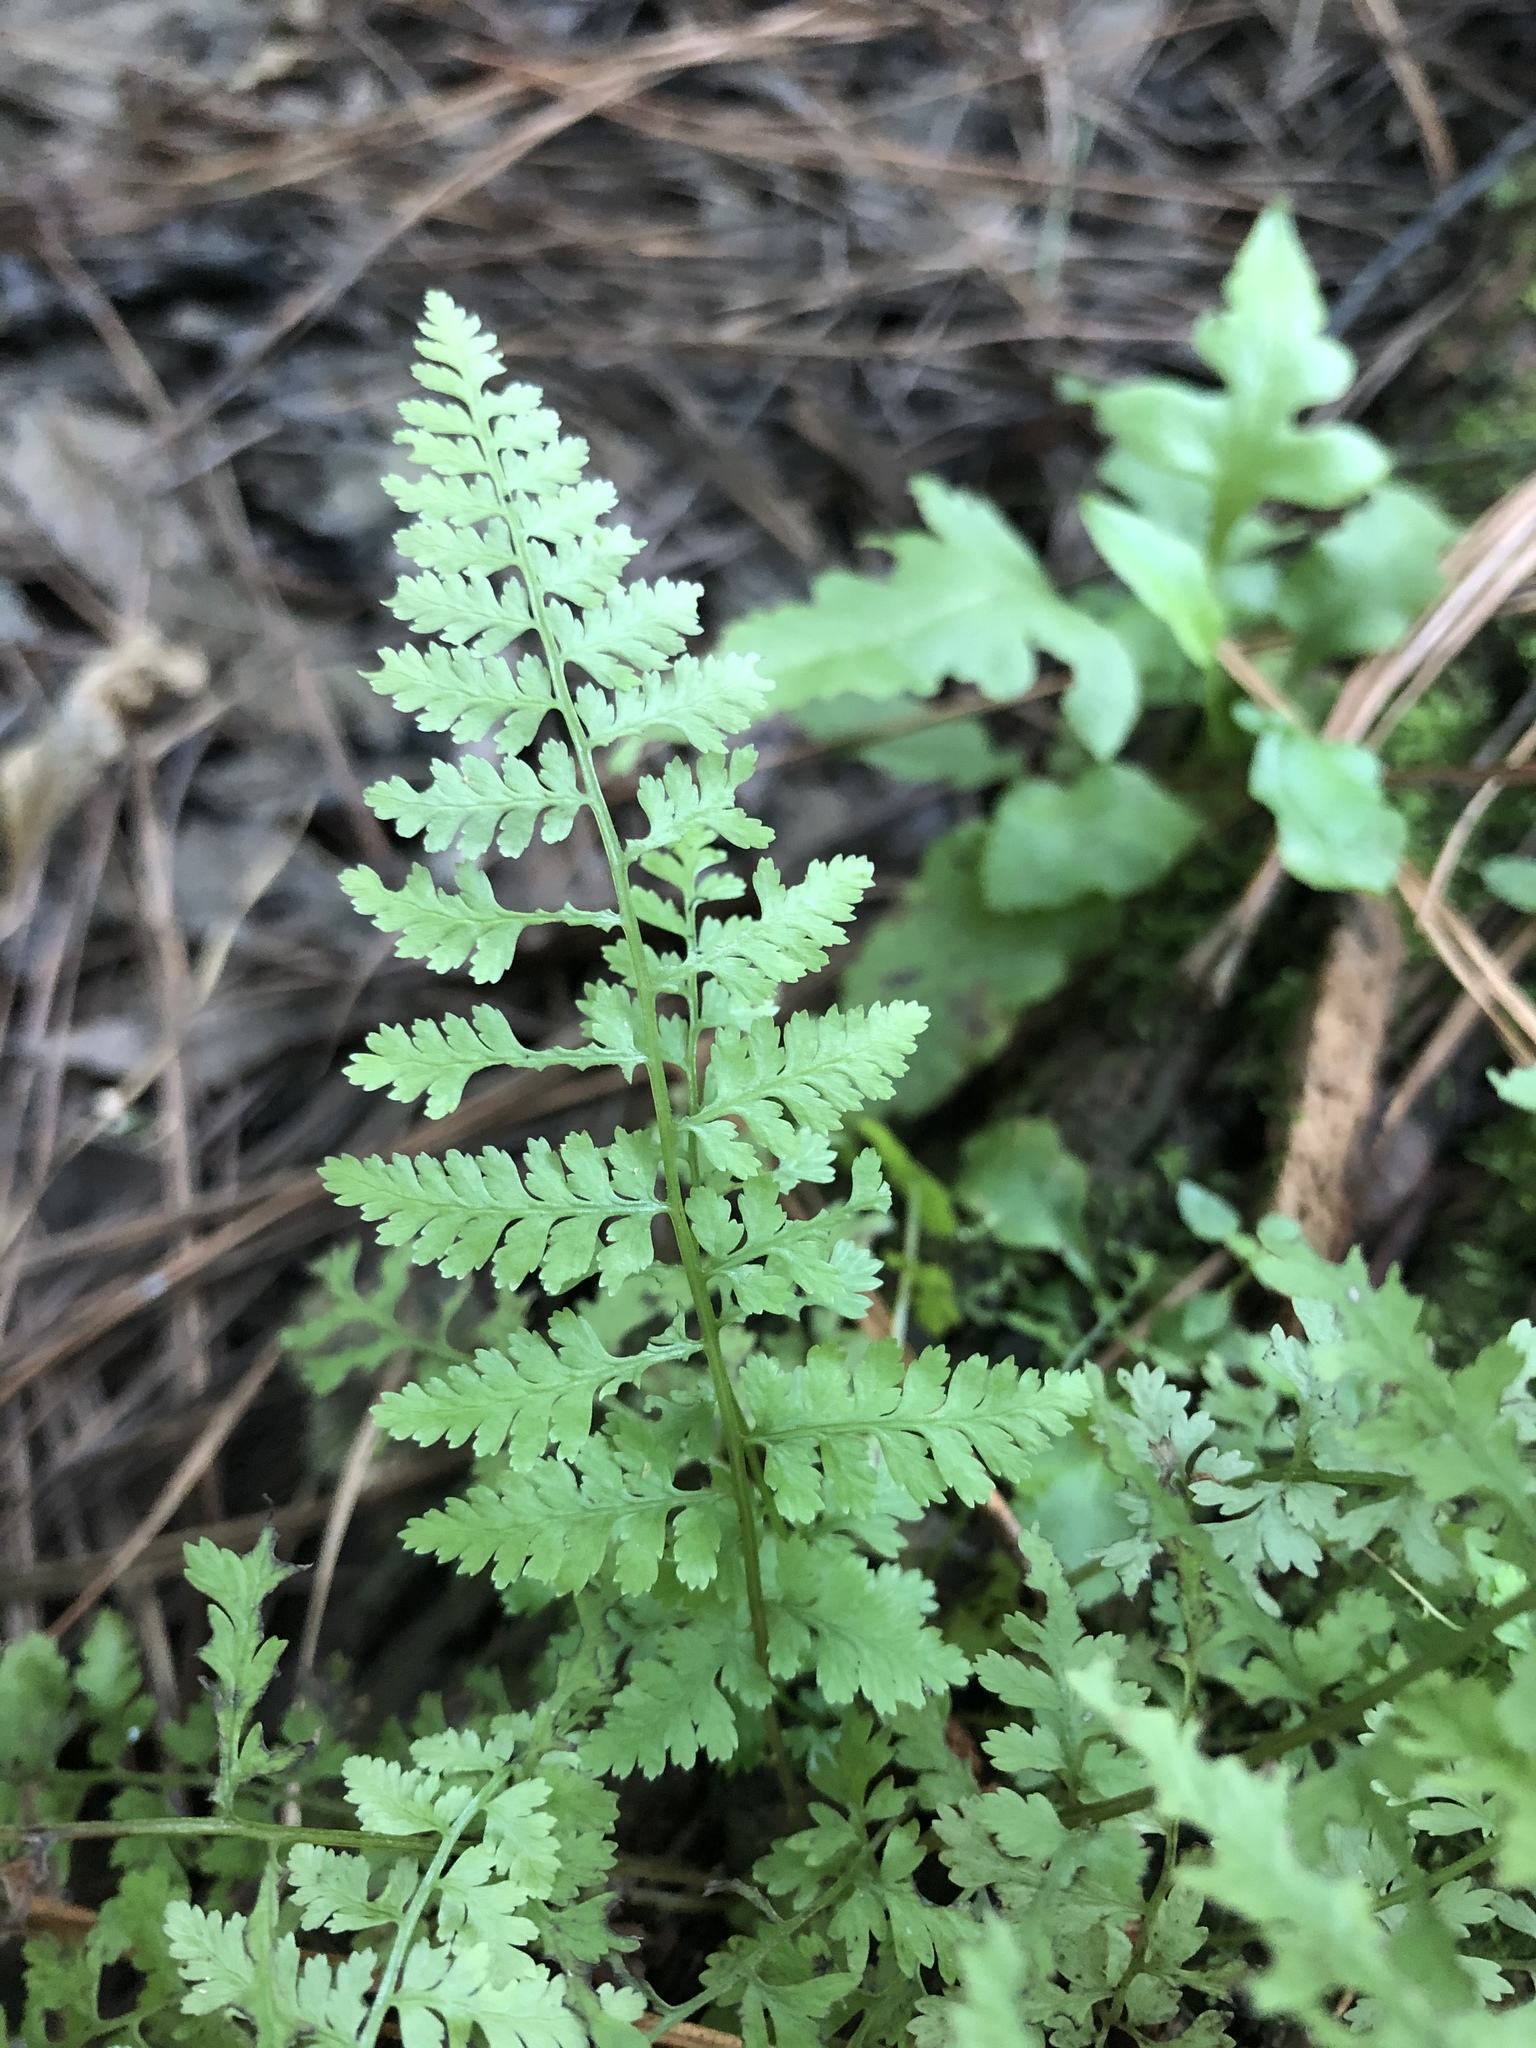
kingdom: Plantae
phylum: Tracheophyta
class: Polypodiopsida
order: Polypodiales
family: Athyriaceae
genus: Athyrium
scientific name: Athyrium asplenioides
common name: Southern lady fern
